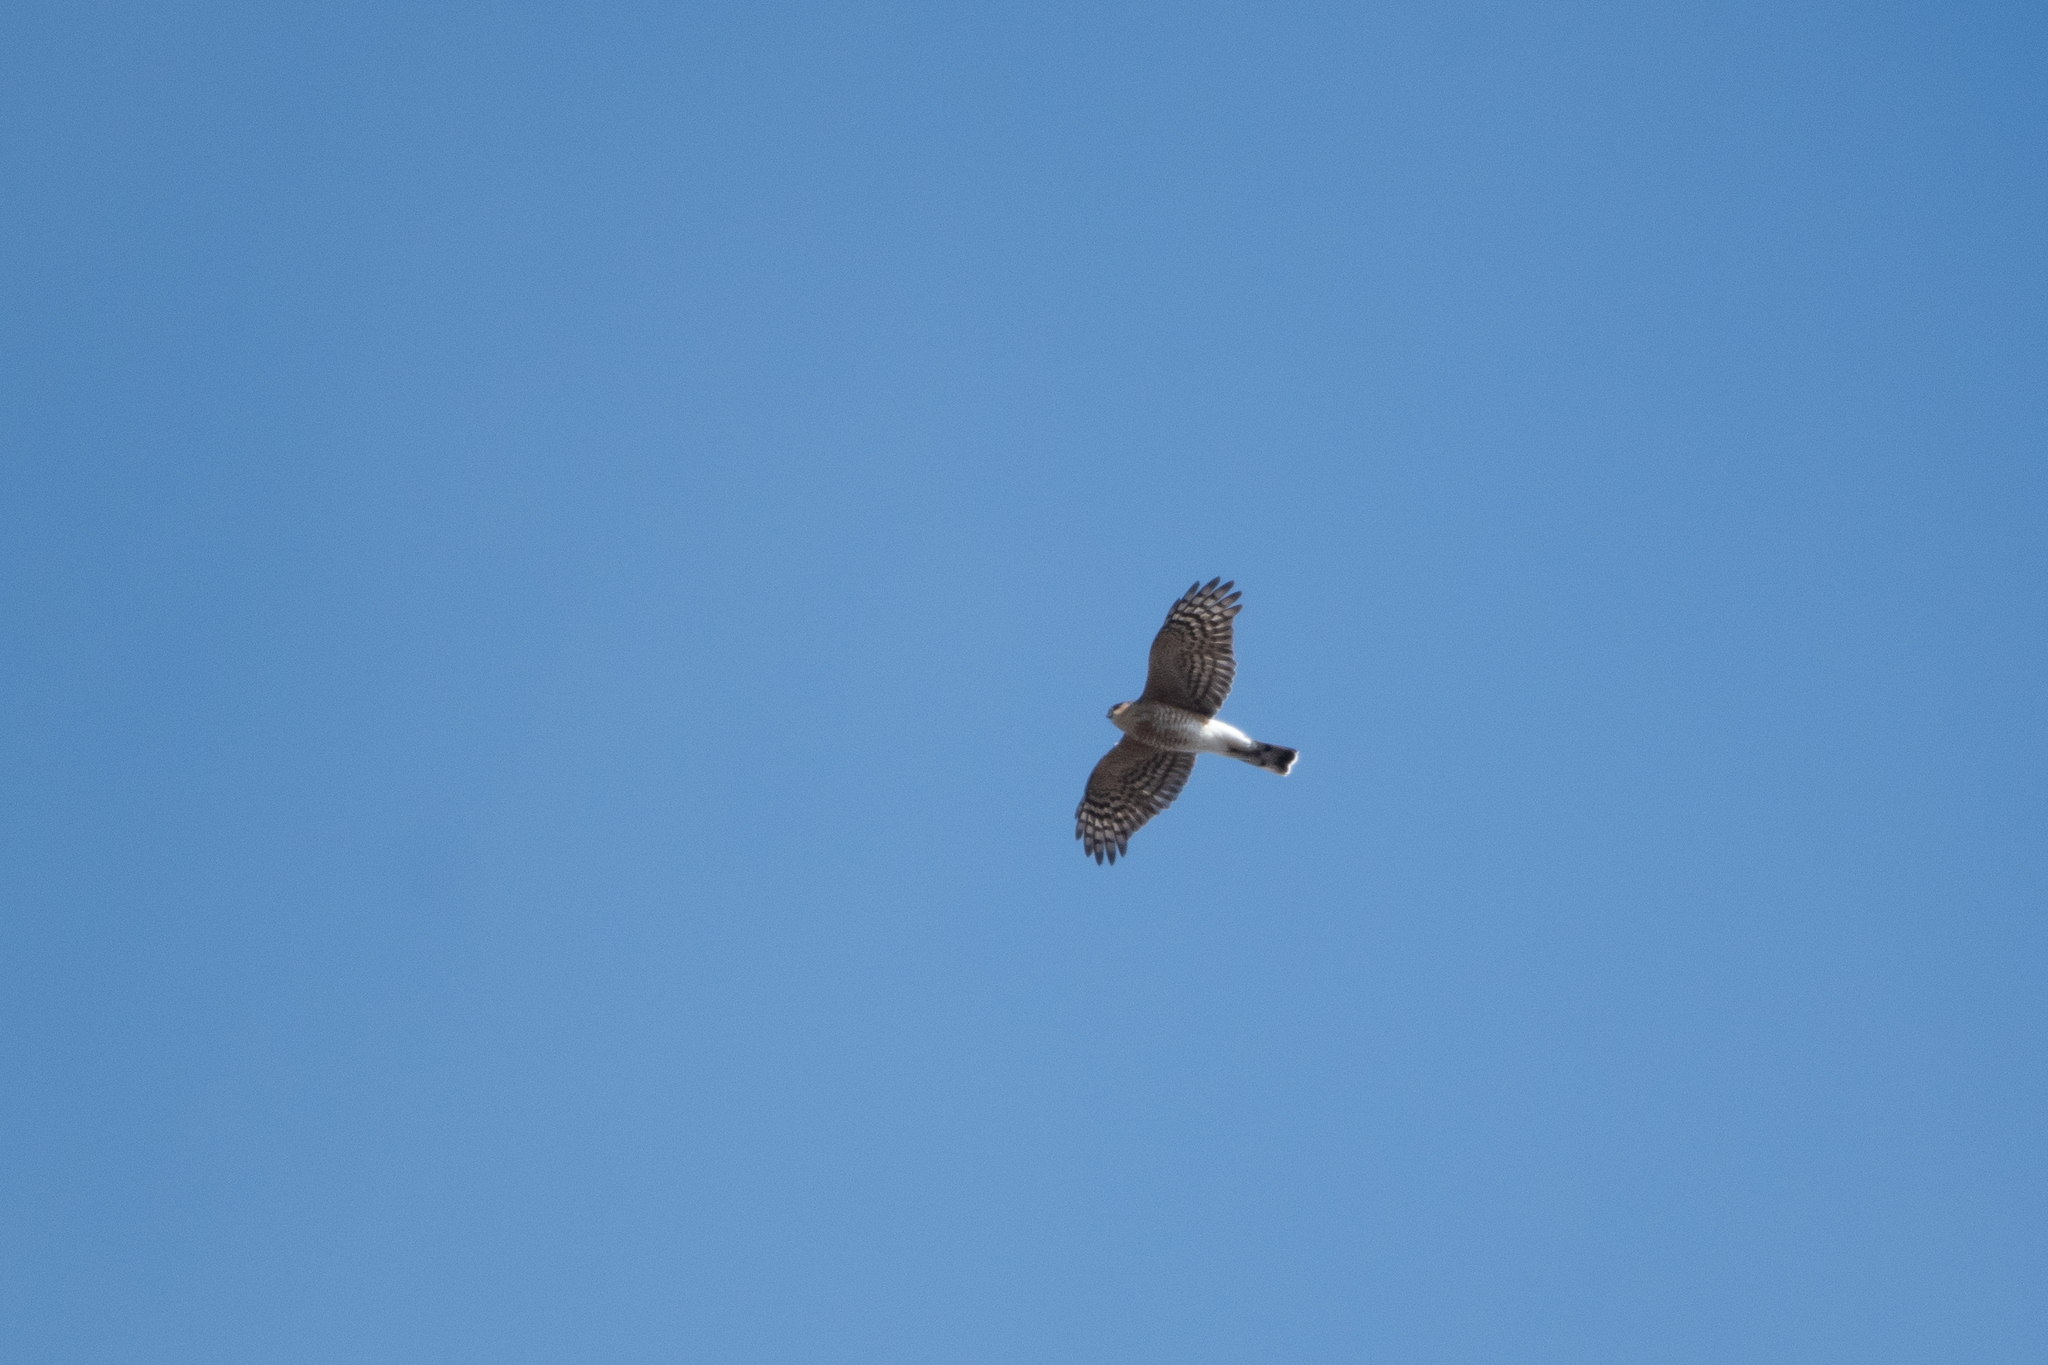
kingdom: Animalia
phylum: Chordata
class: Aves
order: Accipitriformes
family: Accipitridae
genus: Accipiter
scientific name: Accipiter striatus
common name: Sharp-shinned hawk
